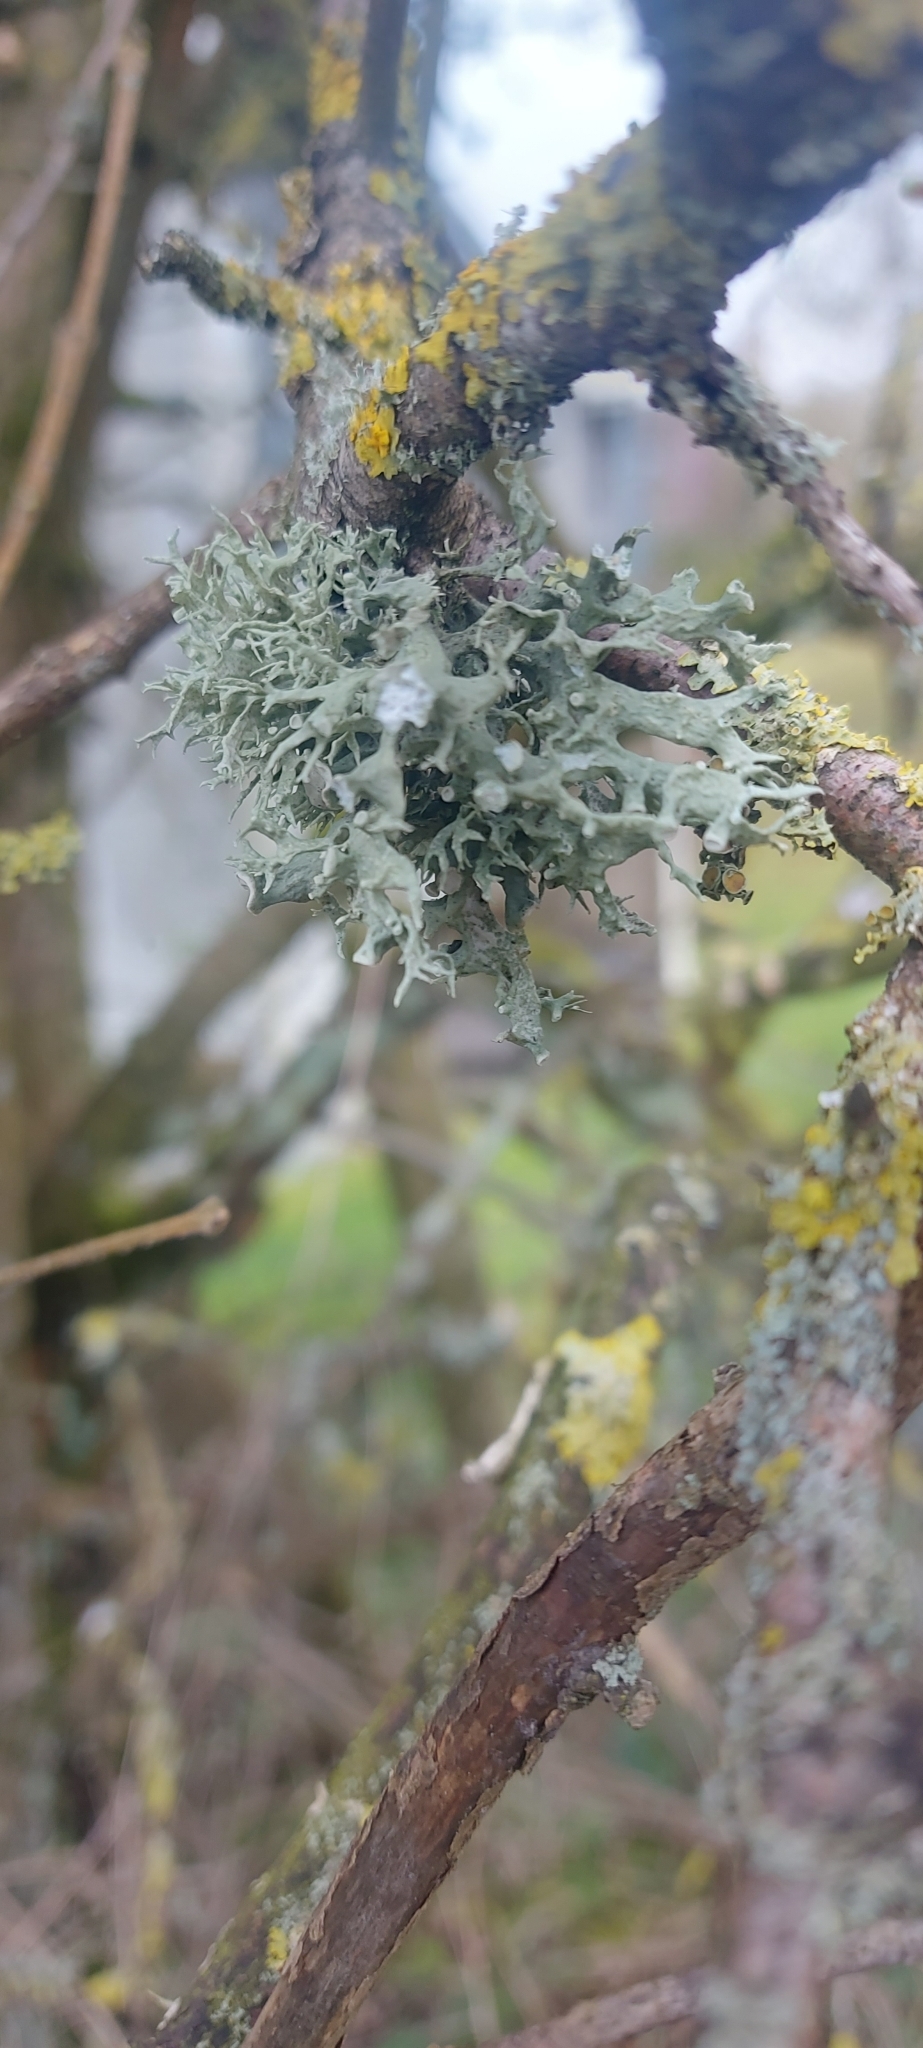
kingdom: Fungi
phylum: Ascomycota
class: Lecanoromycetes
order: Lecanorales
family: Ramalinaceae
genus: Ramalina
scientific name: Ramalina fastigiata
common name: Dotted ribbon lichen
